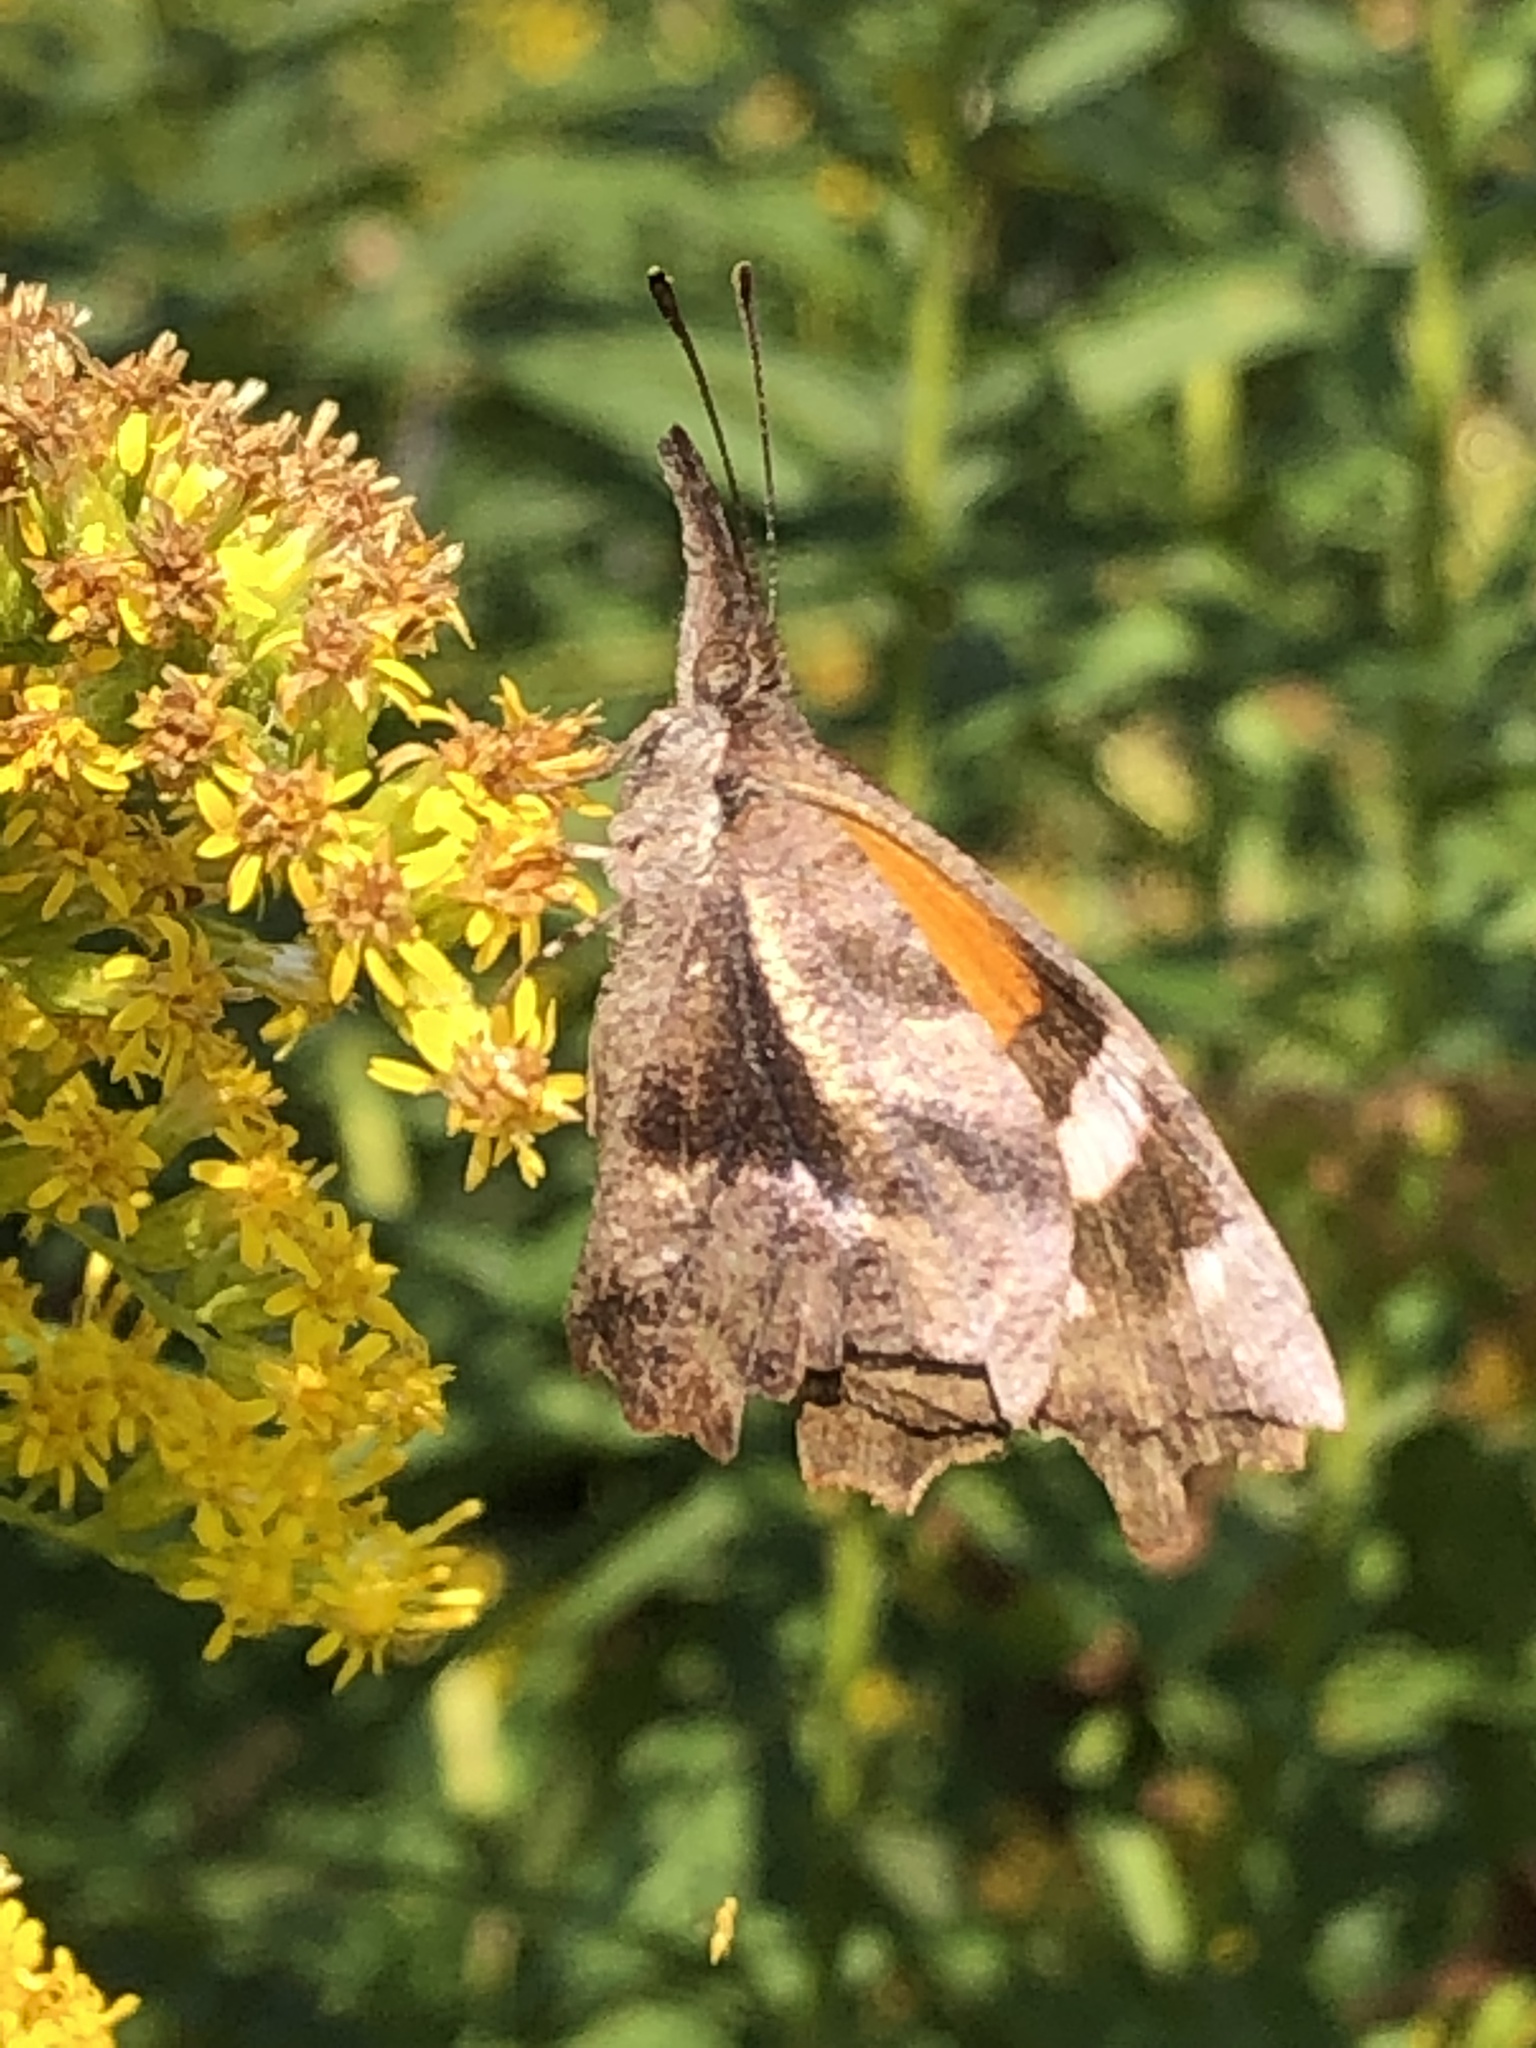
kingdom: Animalia
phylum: Arthropoda
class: Insecta
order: Lepidoptera
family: Nymphalidae
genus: Libytheana
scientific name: Libytheana carinenta
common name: American snout
